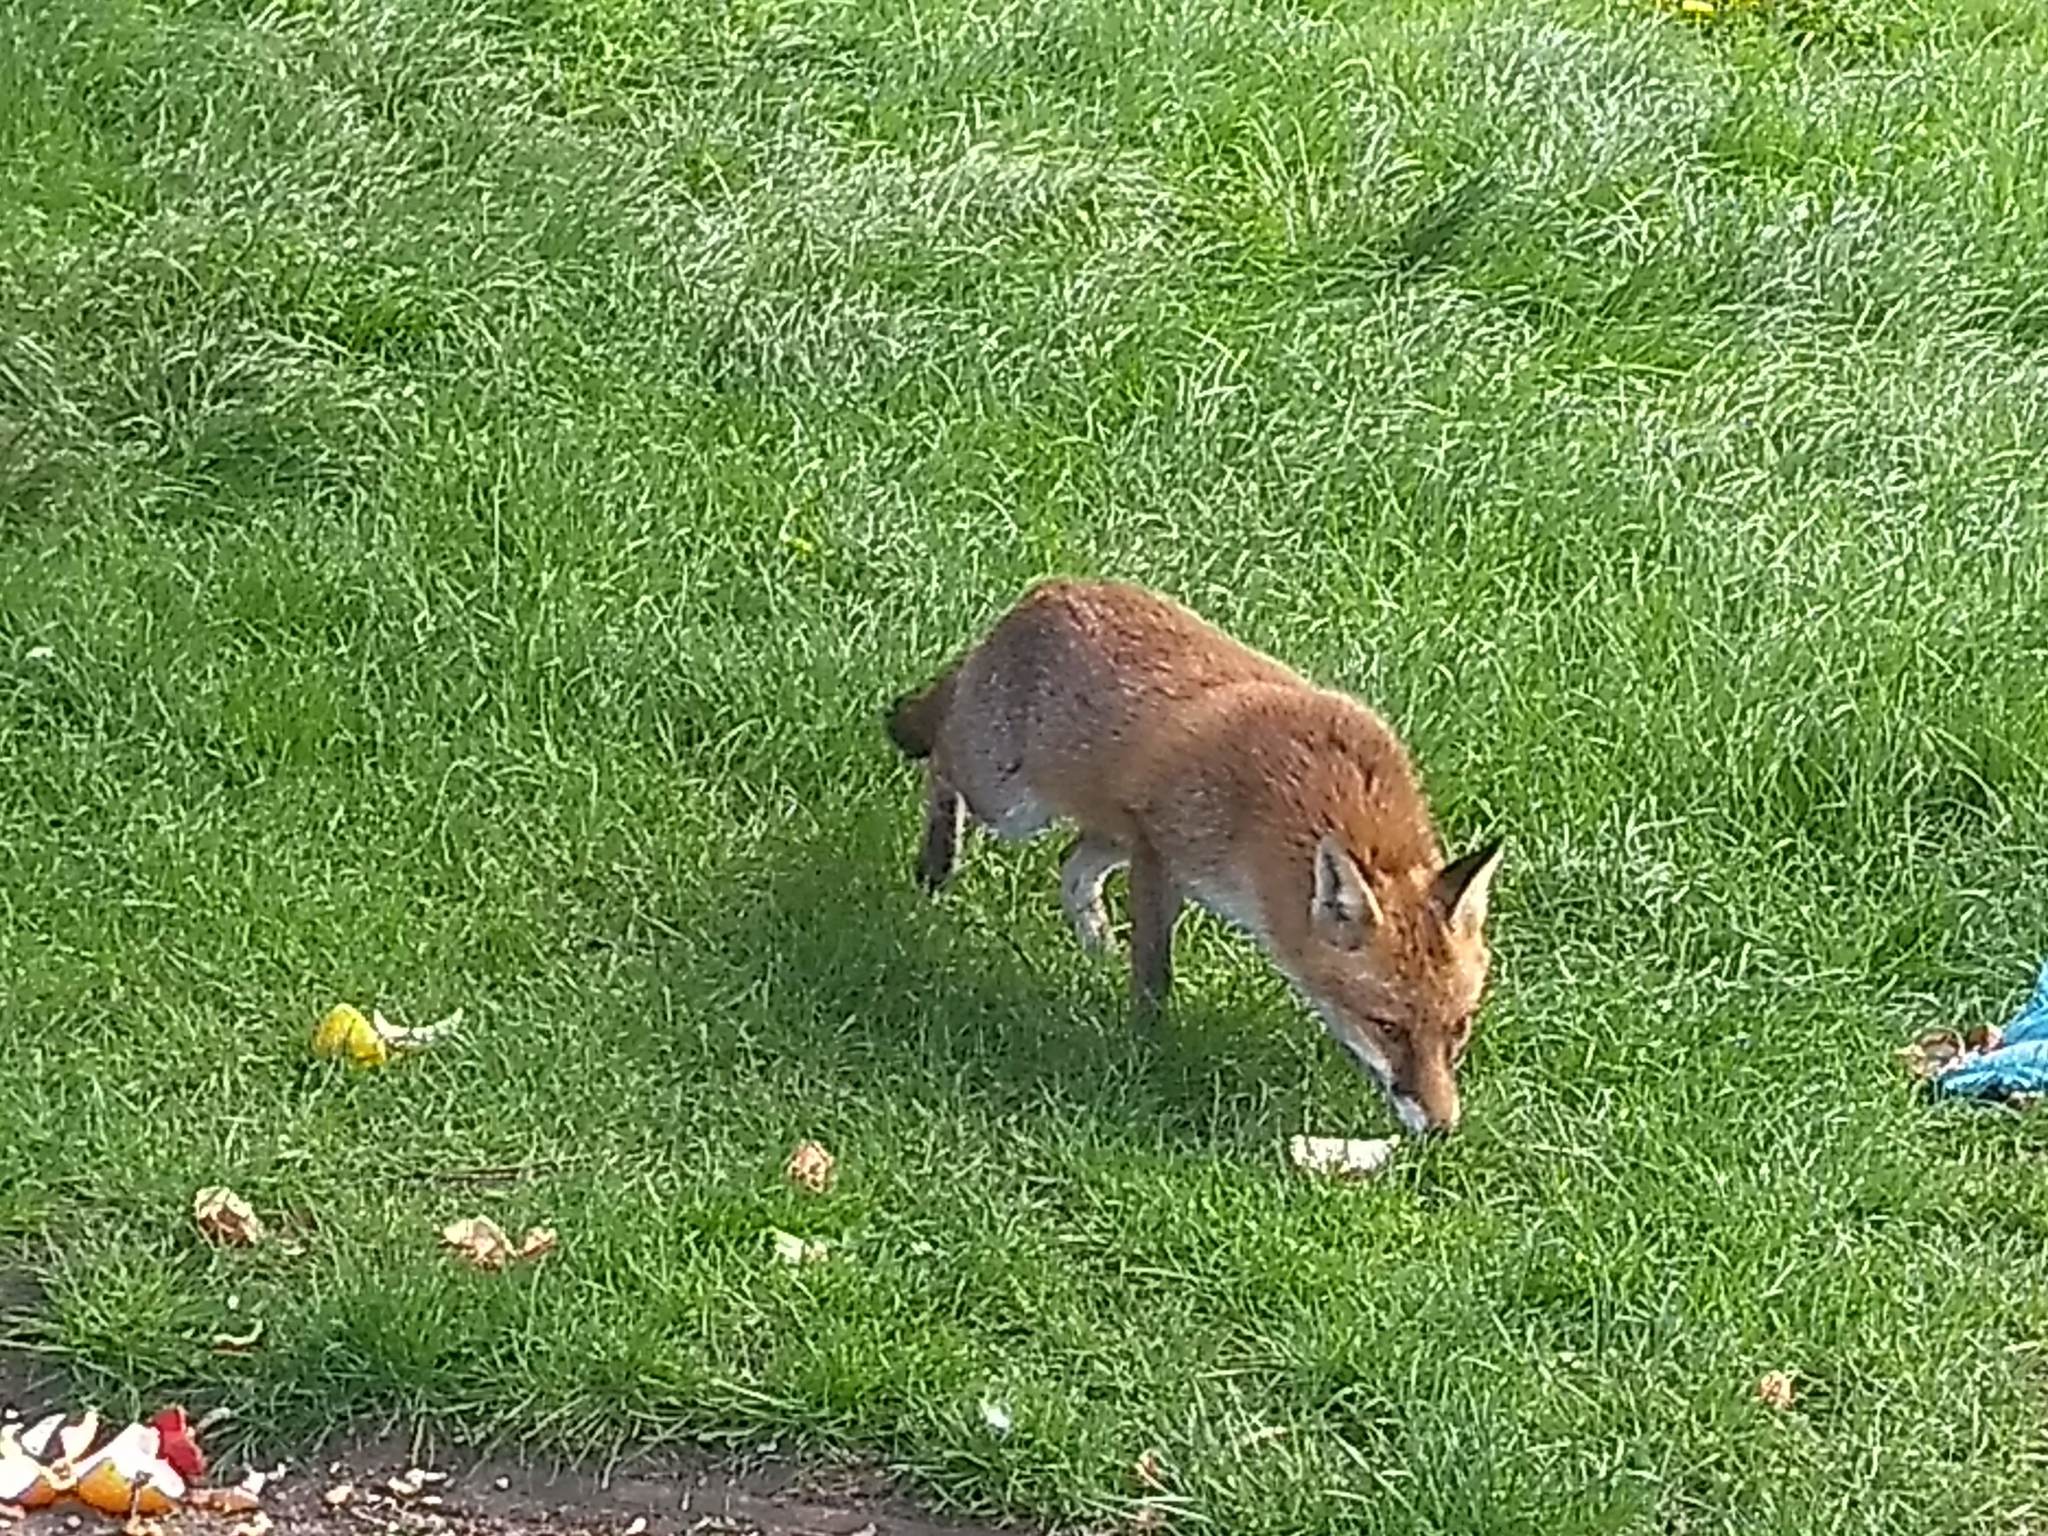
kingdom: Animalia
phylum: Chordata
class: Mammalia
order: Carnivora
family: Canidae
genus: Vulpes
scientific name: Vulpes vulpes
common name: Red fox
